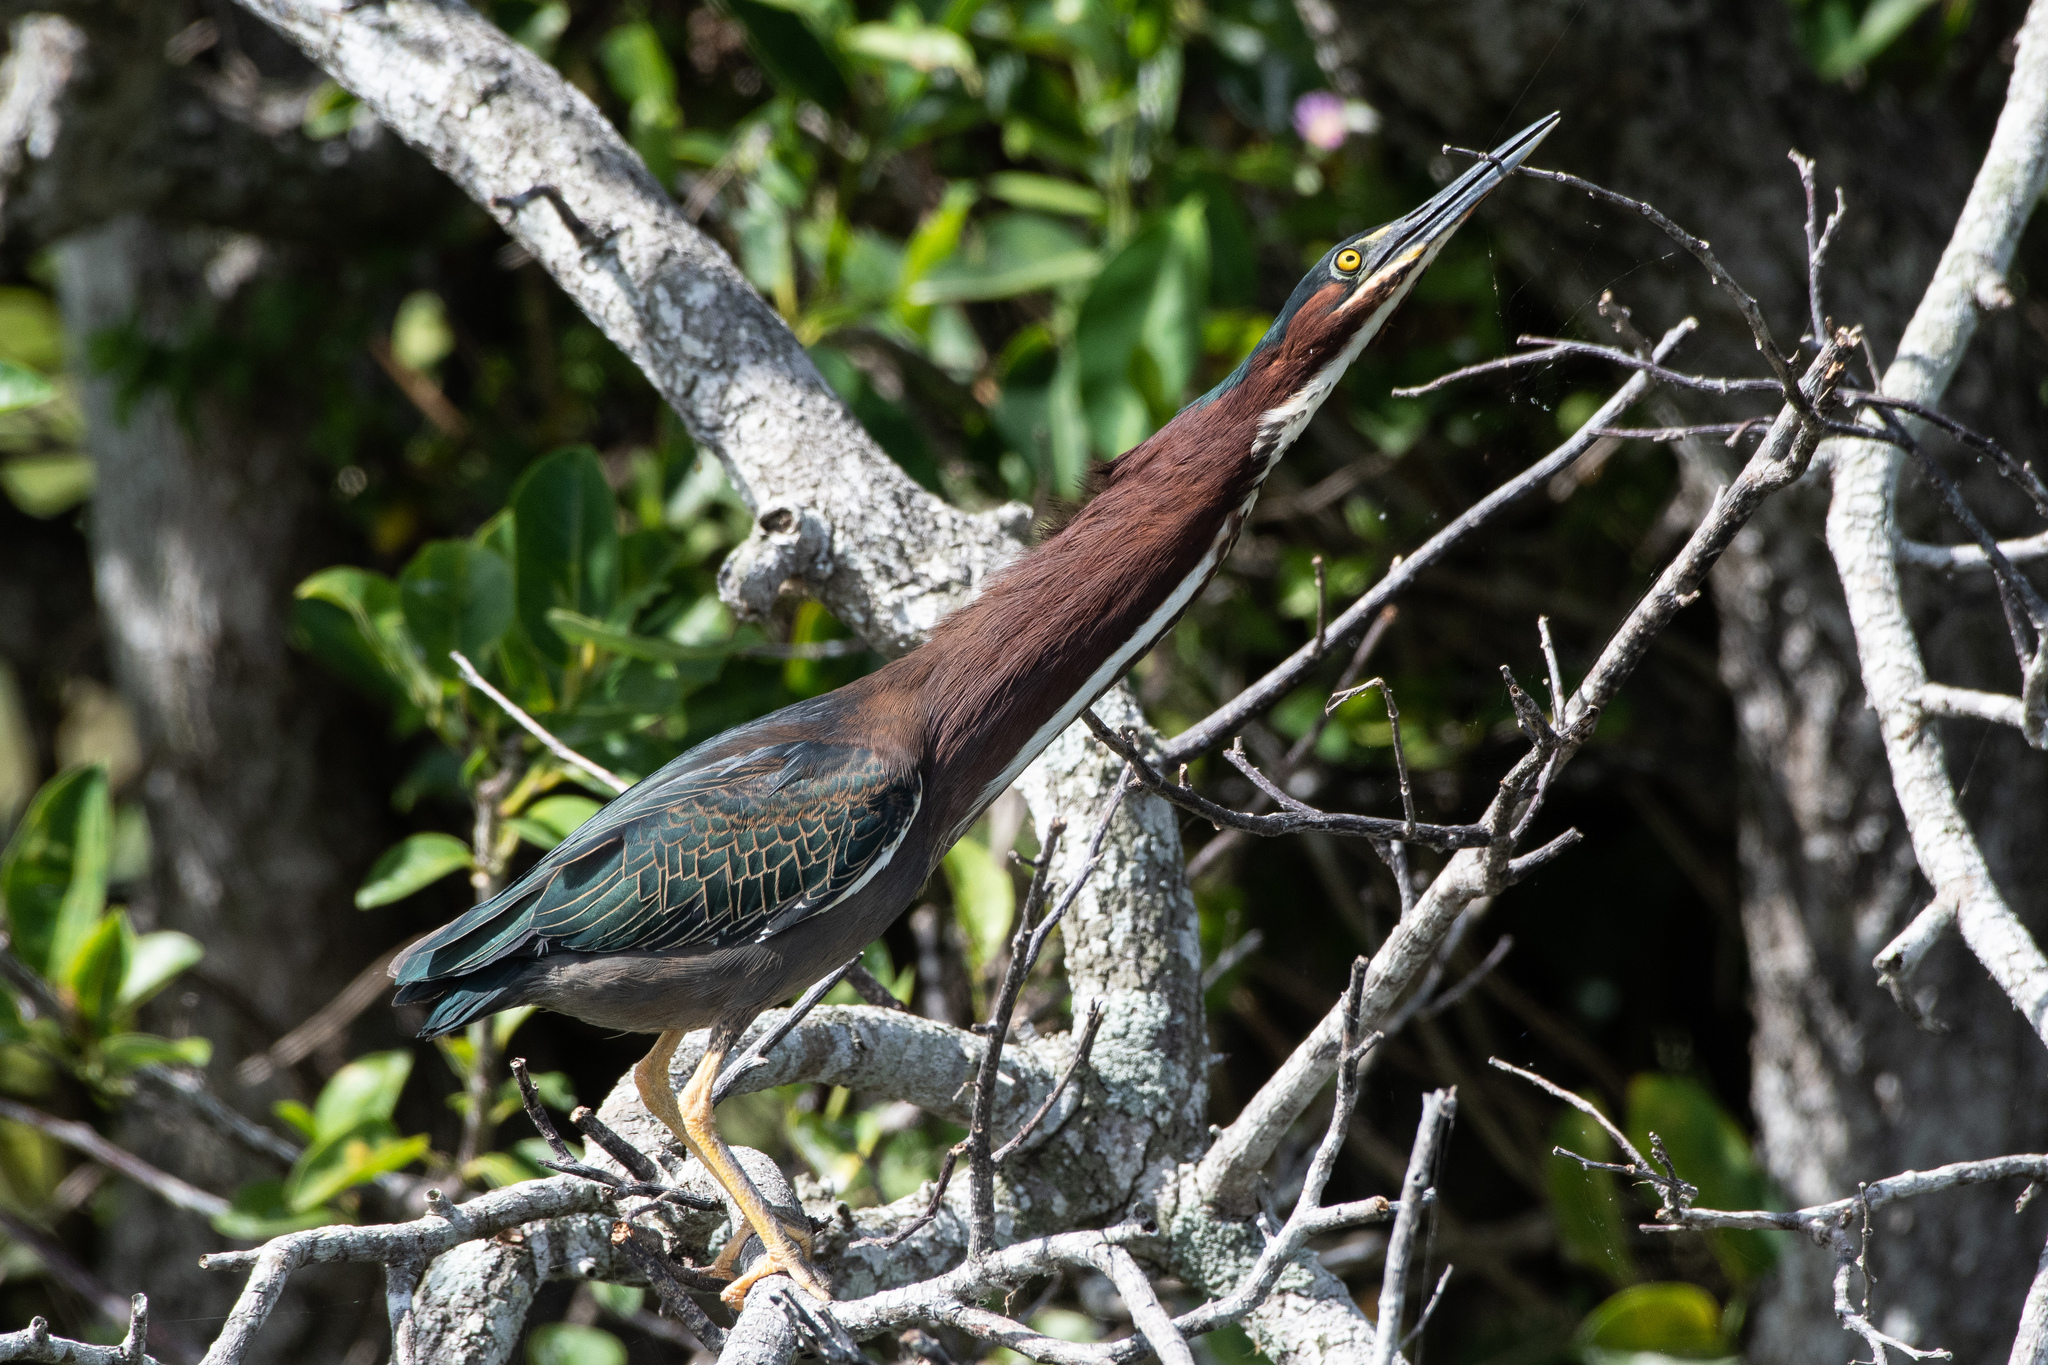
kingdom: Animalia
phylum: Chordata
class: Aves
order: Pelecaniformes
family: Ardeidae
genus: Butorides
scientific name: Butorides virescens
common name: Green heron
